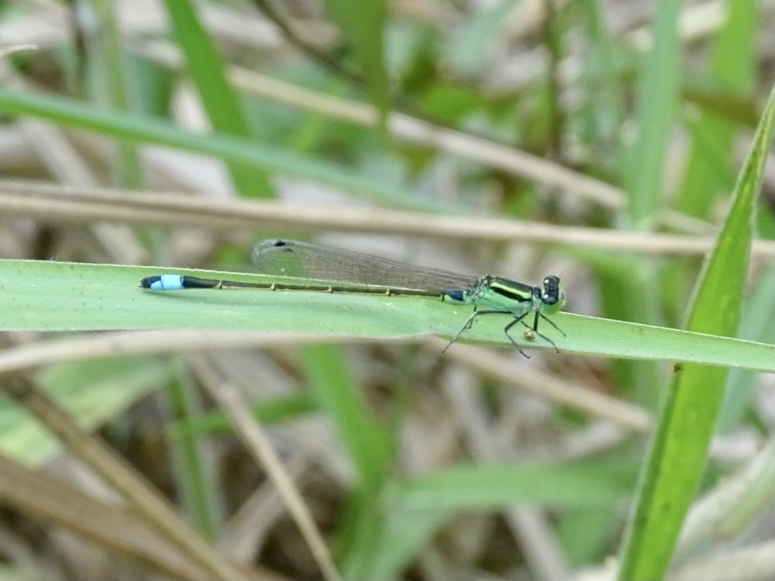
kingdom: Animalia
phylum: Arthropoda
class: Insecta
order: Odonata
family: Coenagrionidae
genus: Ischnura
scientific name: Ischnura senegalensis
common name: Tropical bluetail
